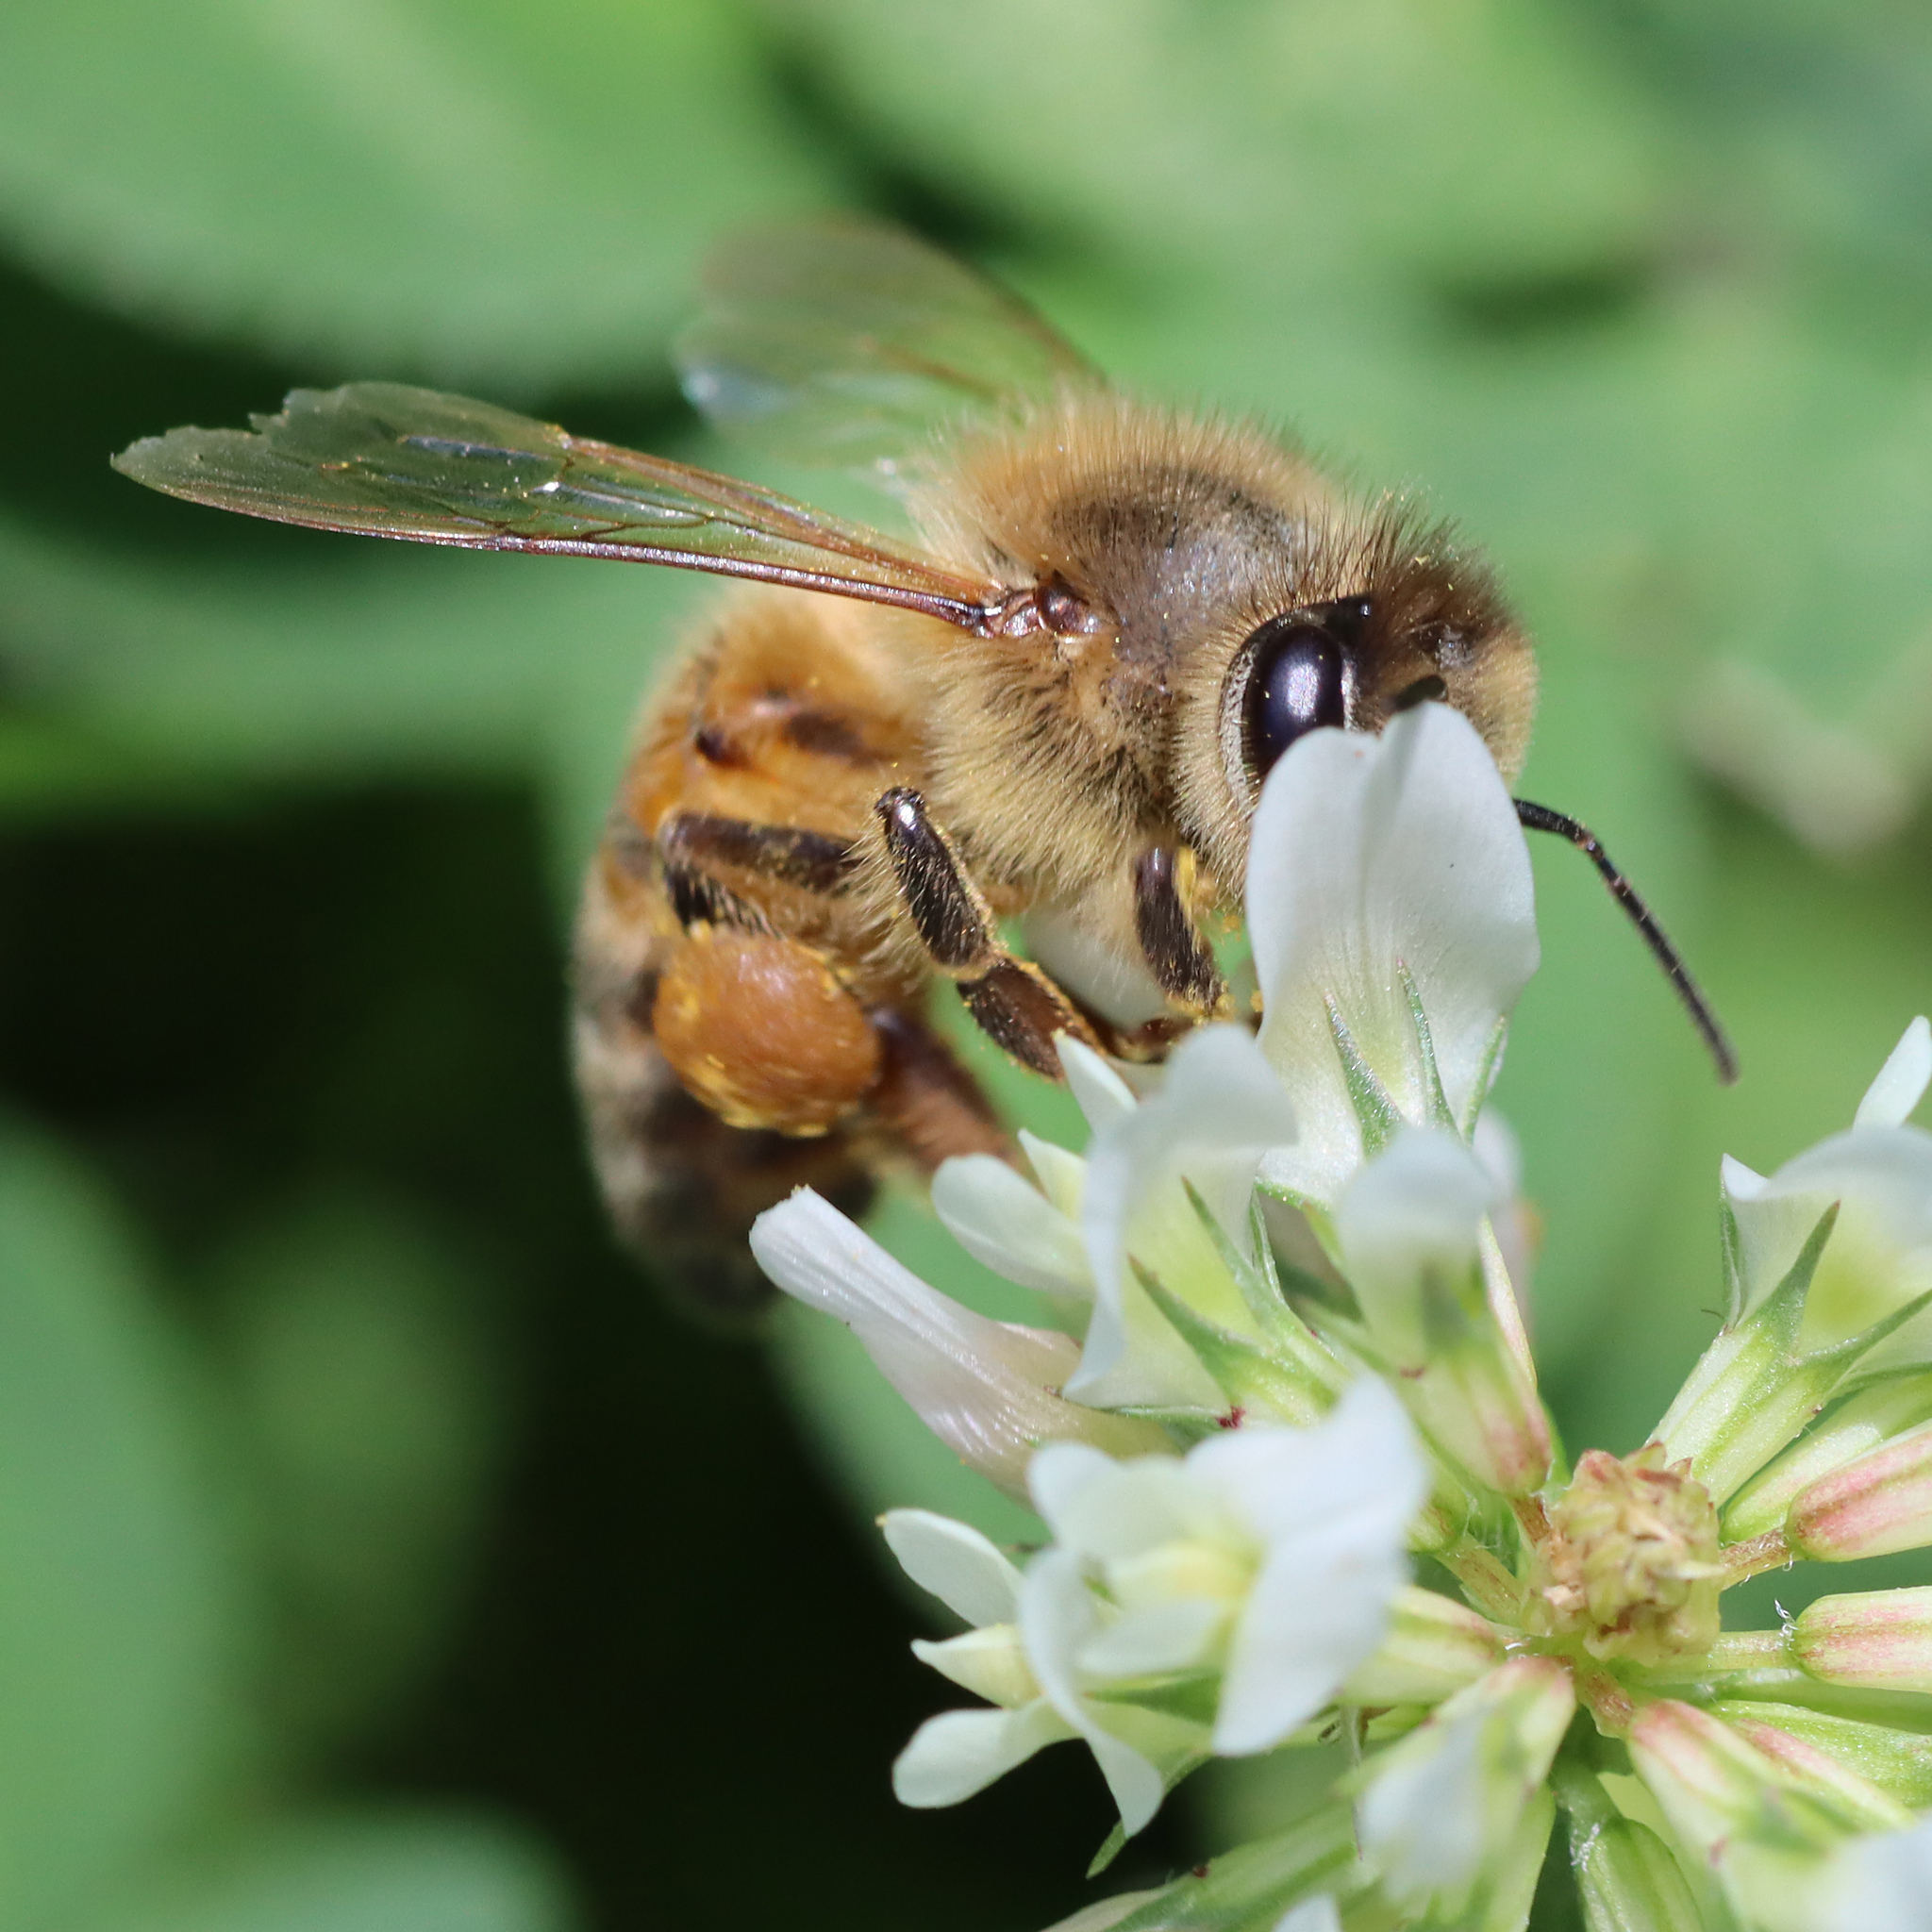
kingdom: Animalia
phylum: Arthropoda
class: Insecta
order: Hymenoptera
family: Apidae
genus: Apis
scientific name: Apis mellifera
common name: Honey bee
